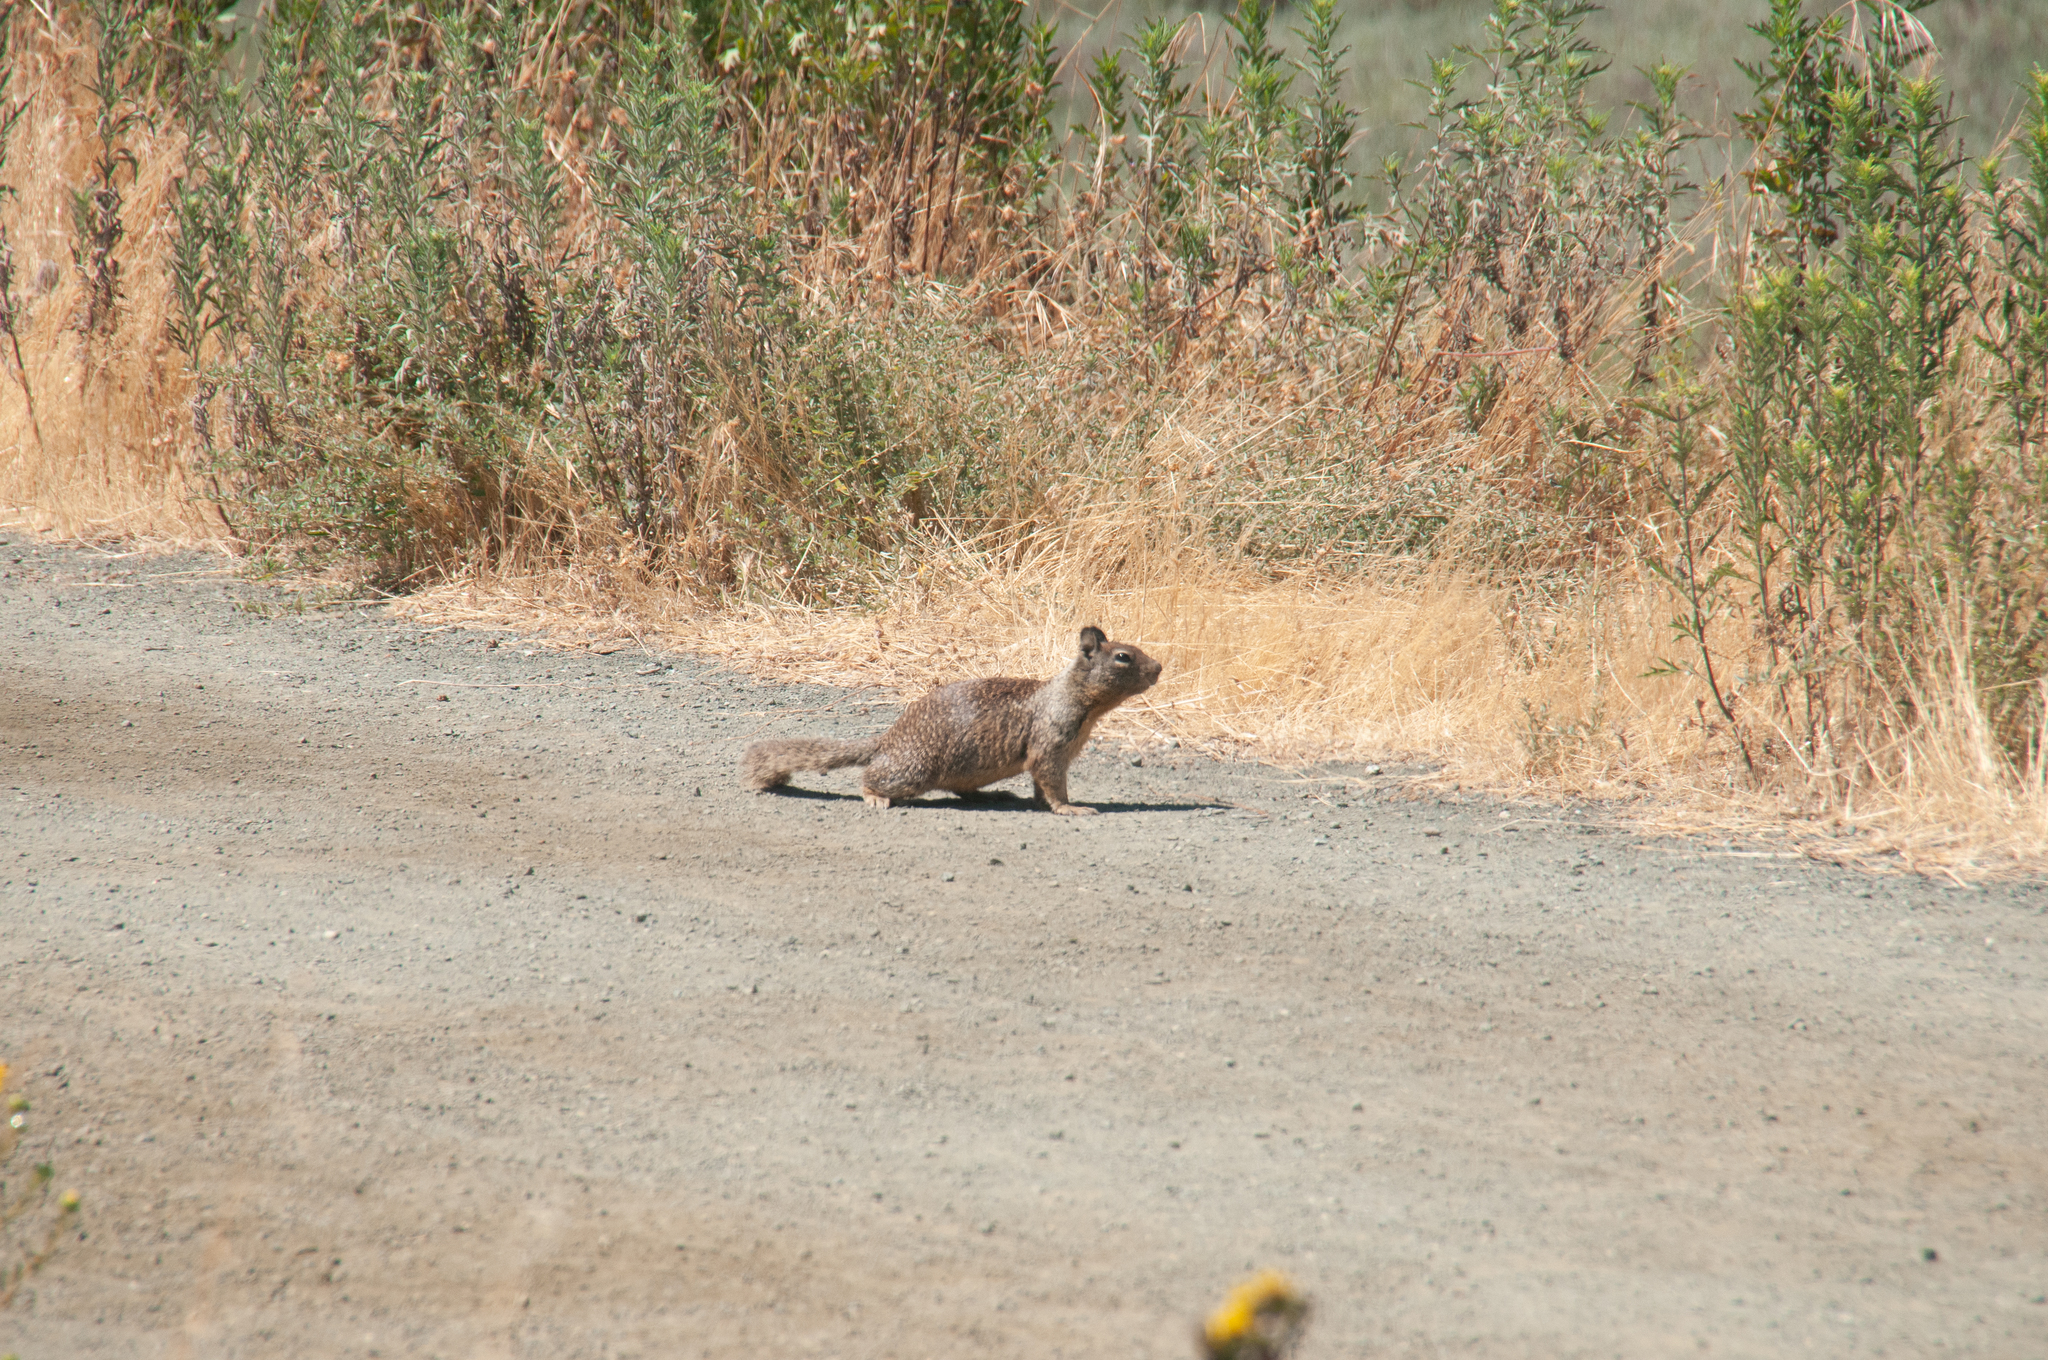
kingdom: Animalia
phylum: Chordata
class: Mammalia
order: Rodentia
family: Sciuridae
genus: Otospermophilus
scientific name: Otospermophilus beecheyi
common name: California ground squirrel
